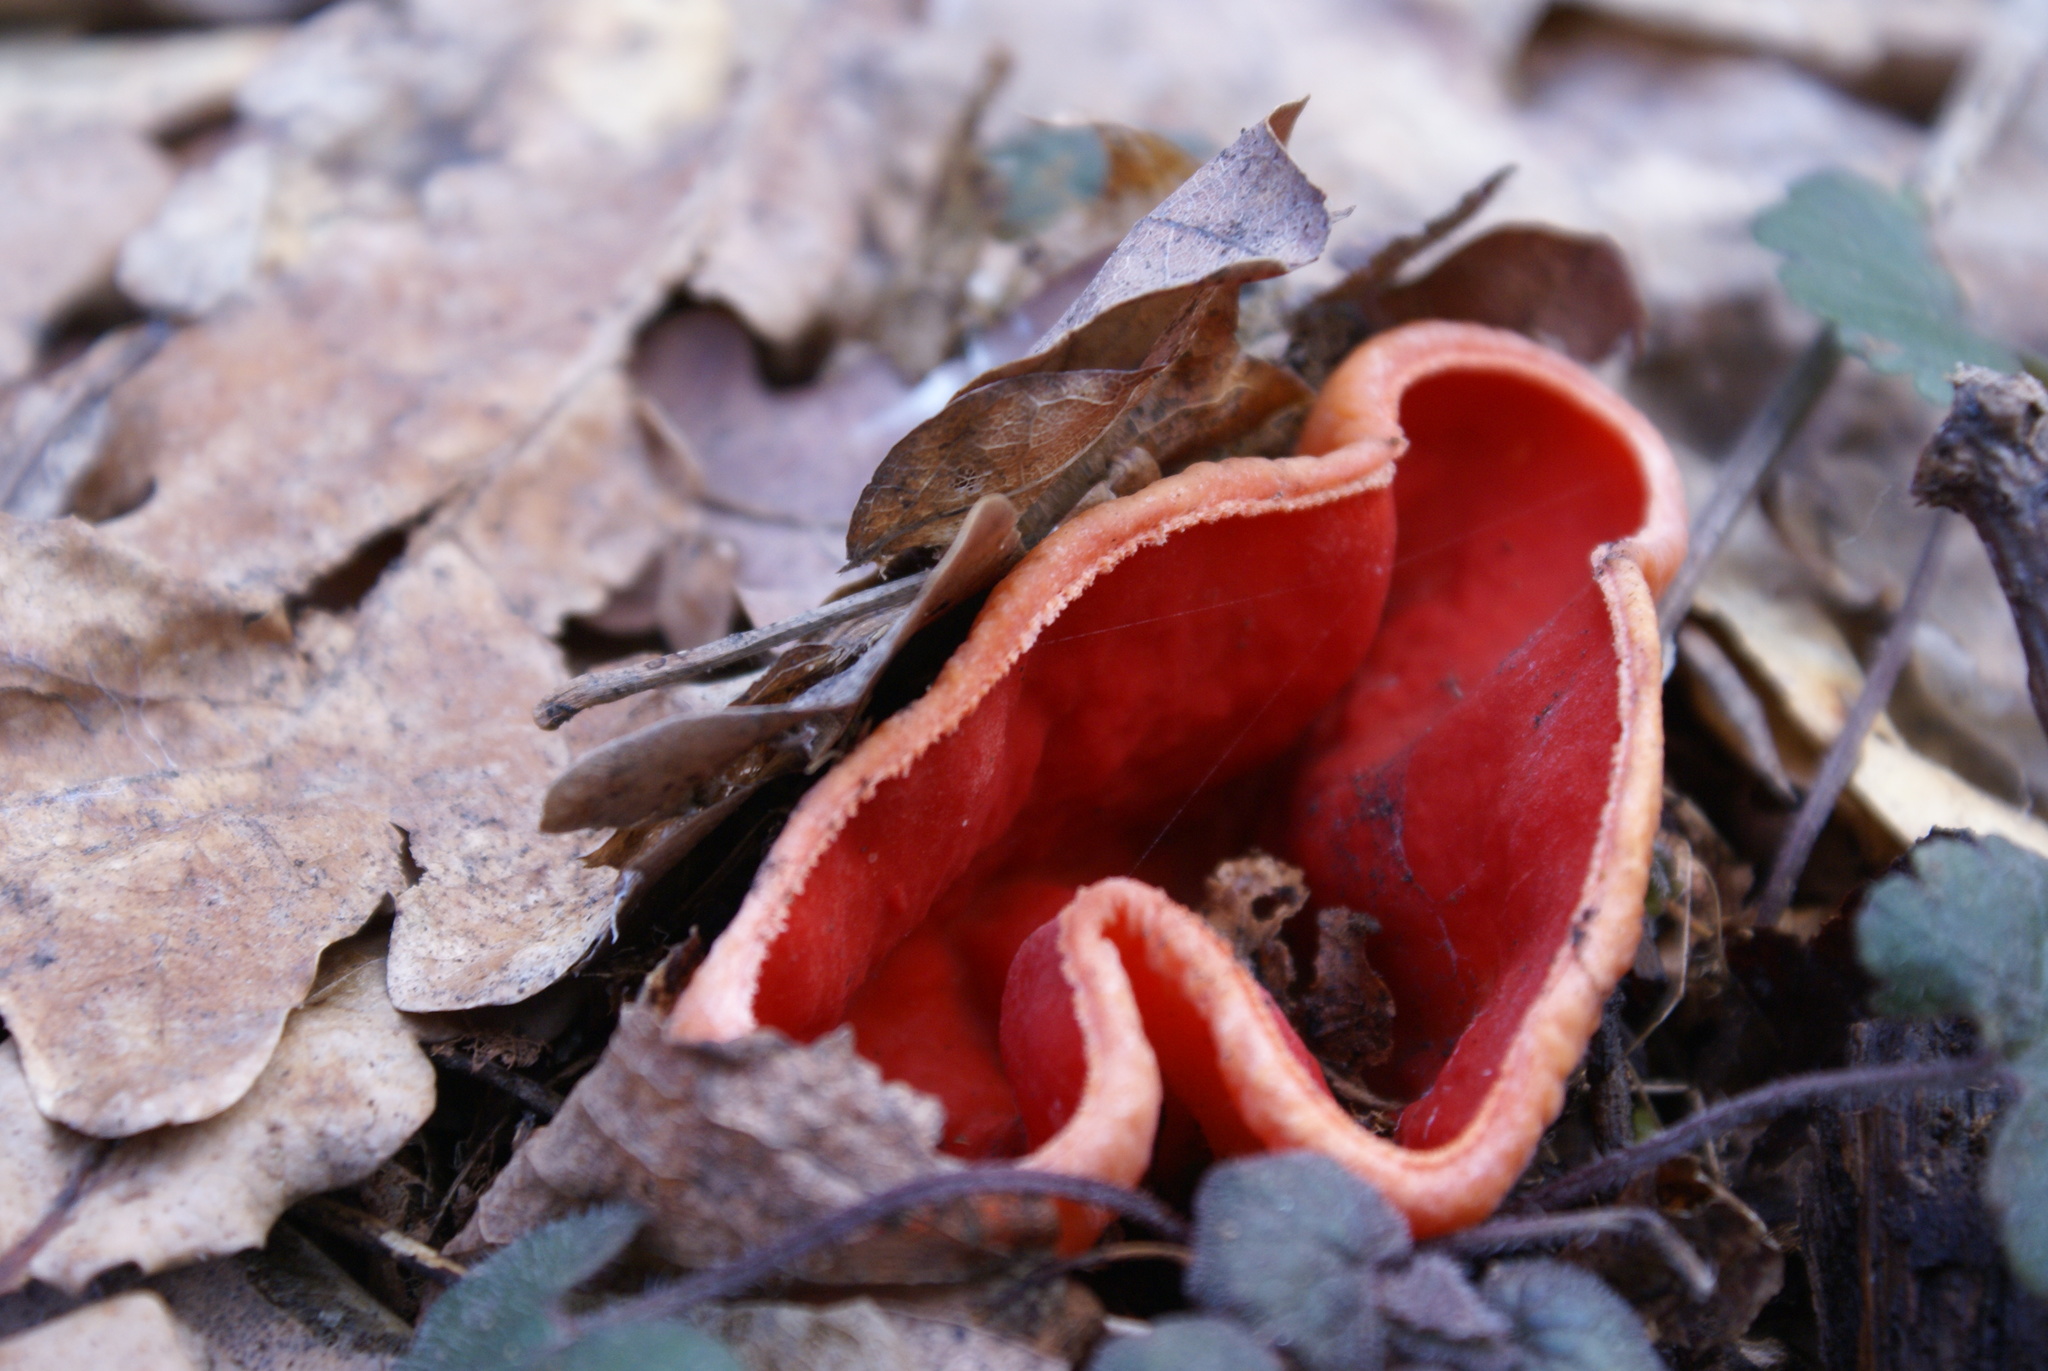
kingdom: Fungi
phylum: Ascomycota
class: Pezizomycetes
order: Pezizales
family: Sarcoscyphaceae
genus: Sarcoscypha
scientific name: Sarcoscypha
